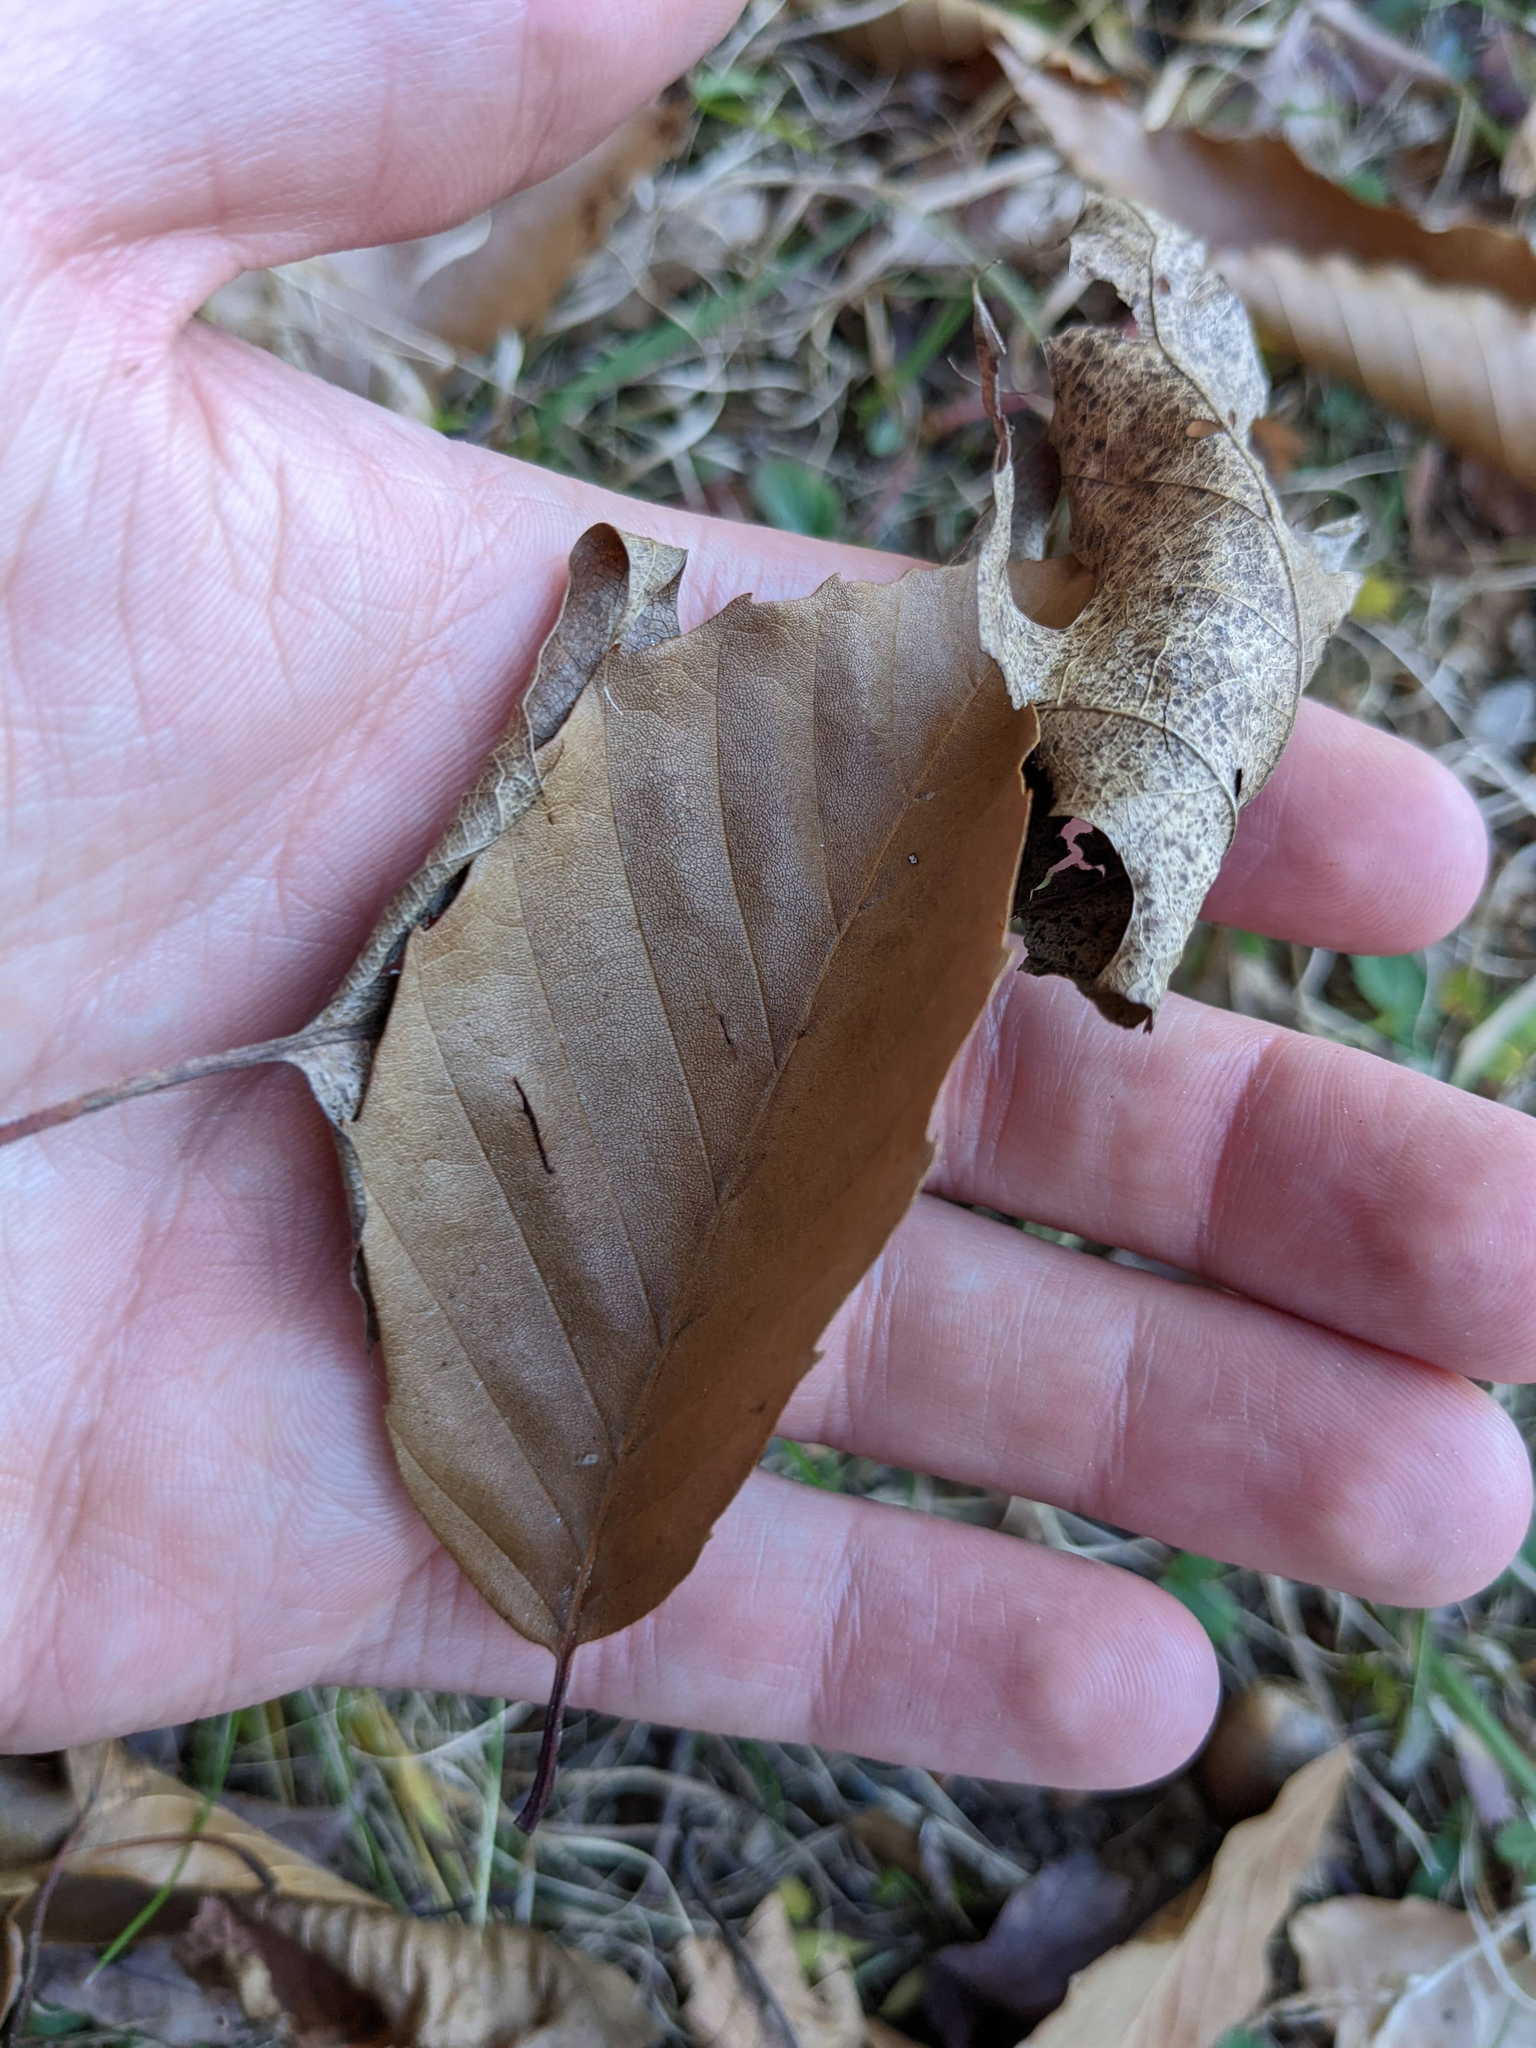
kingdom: Plantae
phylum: Tracheophyta
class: Magnoliopsida
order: Fagales
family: Fagaceae
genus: Fagus
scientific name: Fagus grandifolia
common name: American beech
